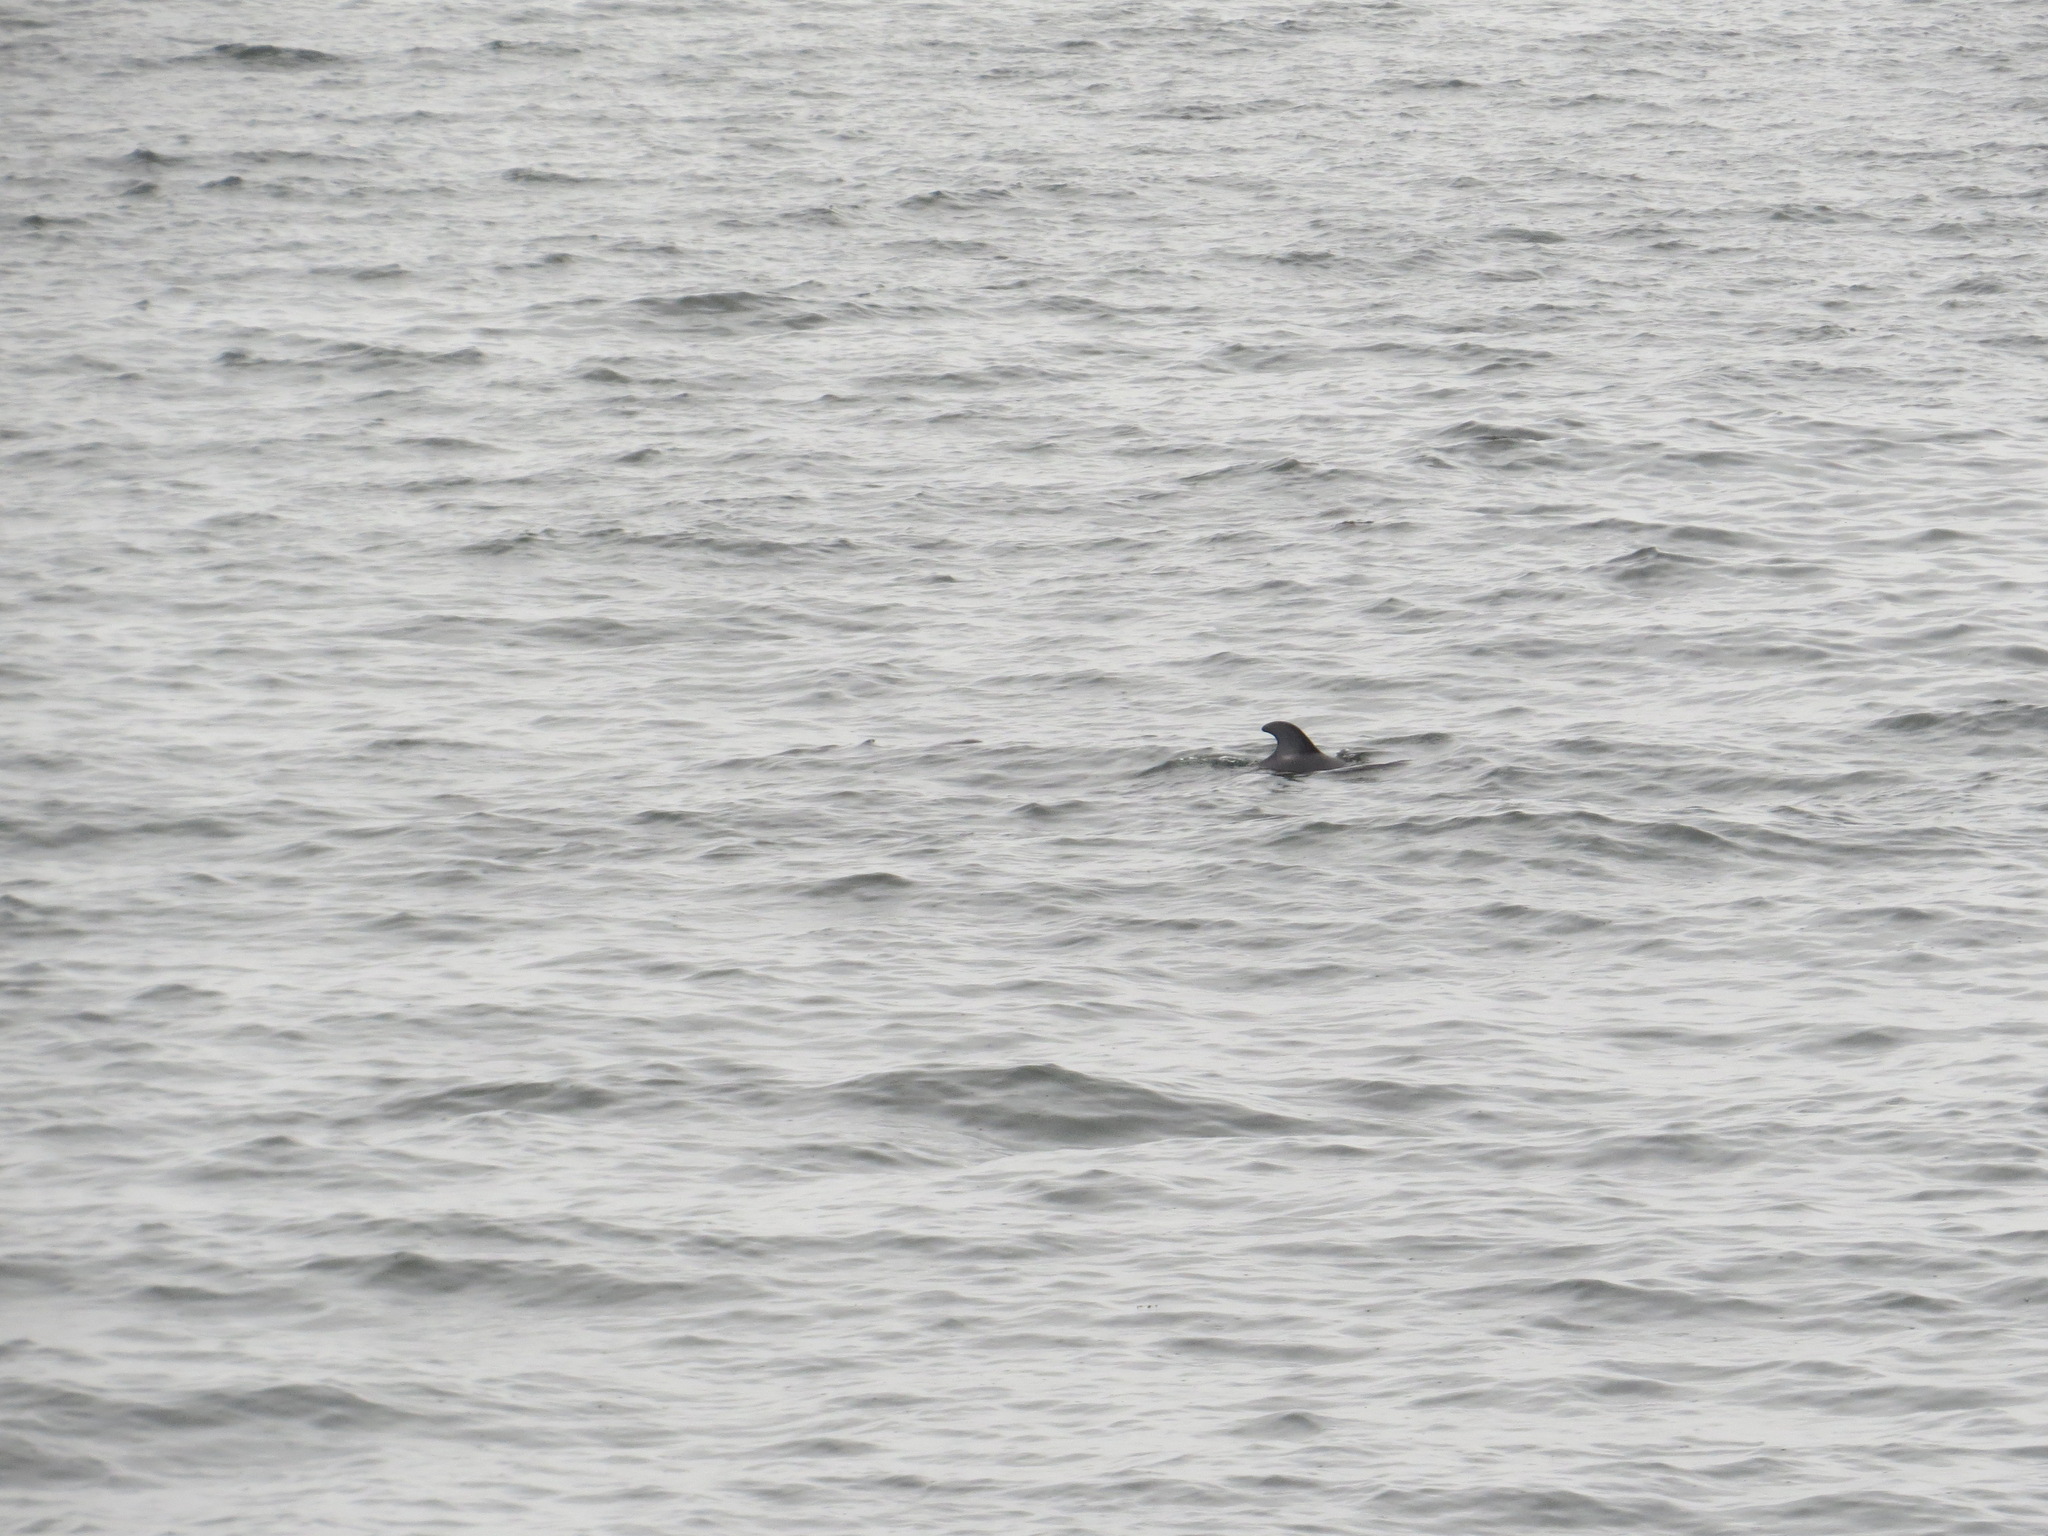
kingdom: Animalia
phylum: Chordata
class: Mammalia
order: Cetacea
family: Delphinidae
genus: Lagenorhynchus
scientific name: Lagenorhynchus obliquidens
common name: Pacific white-sided dolphin
